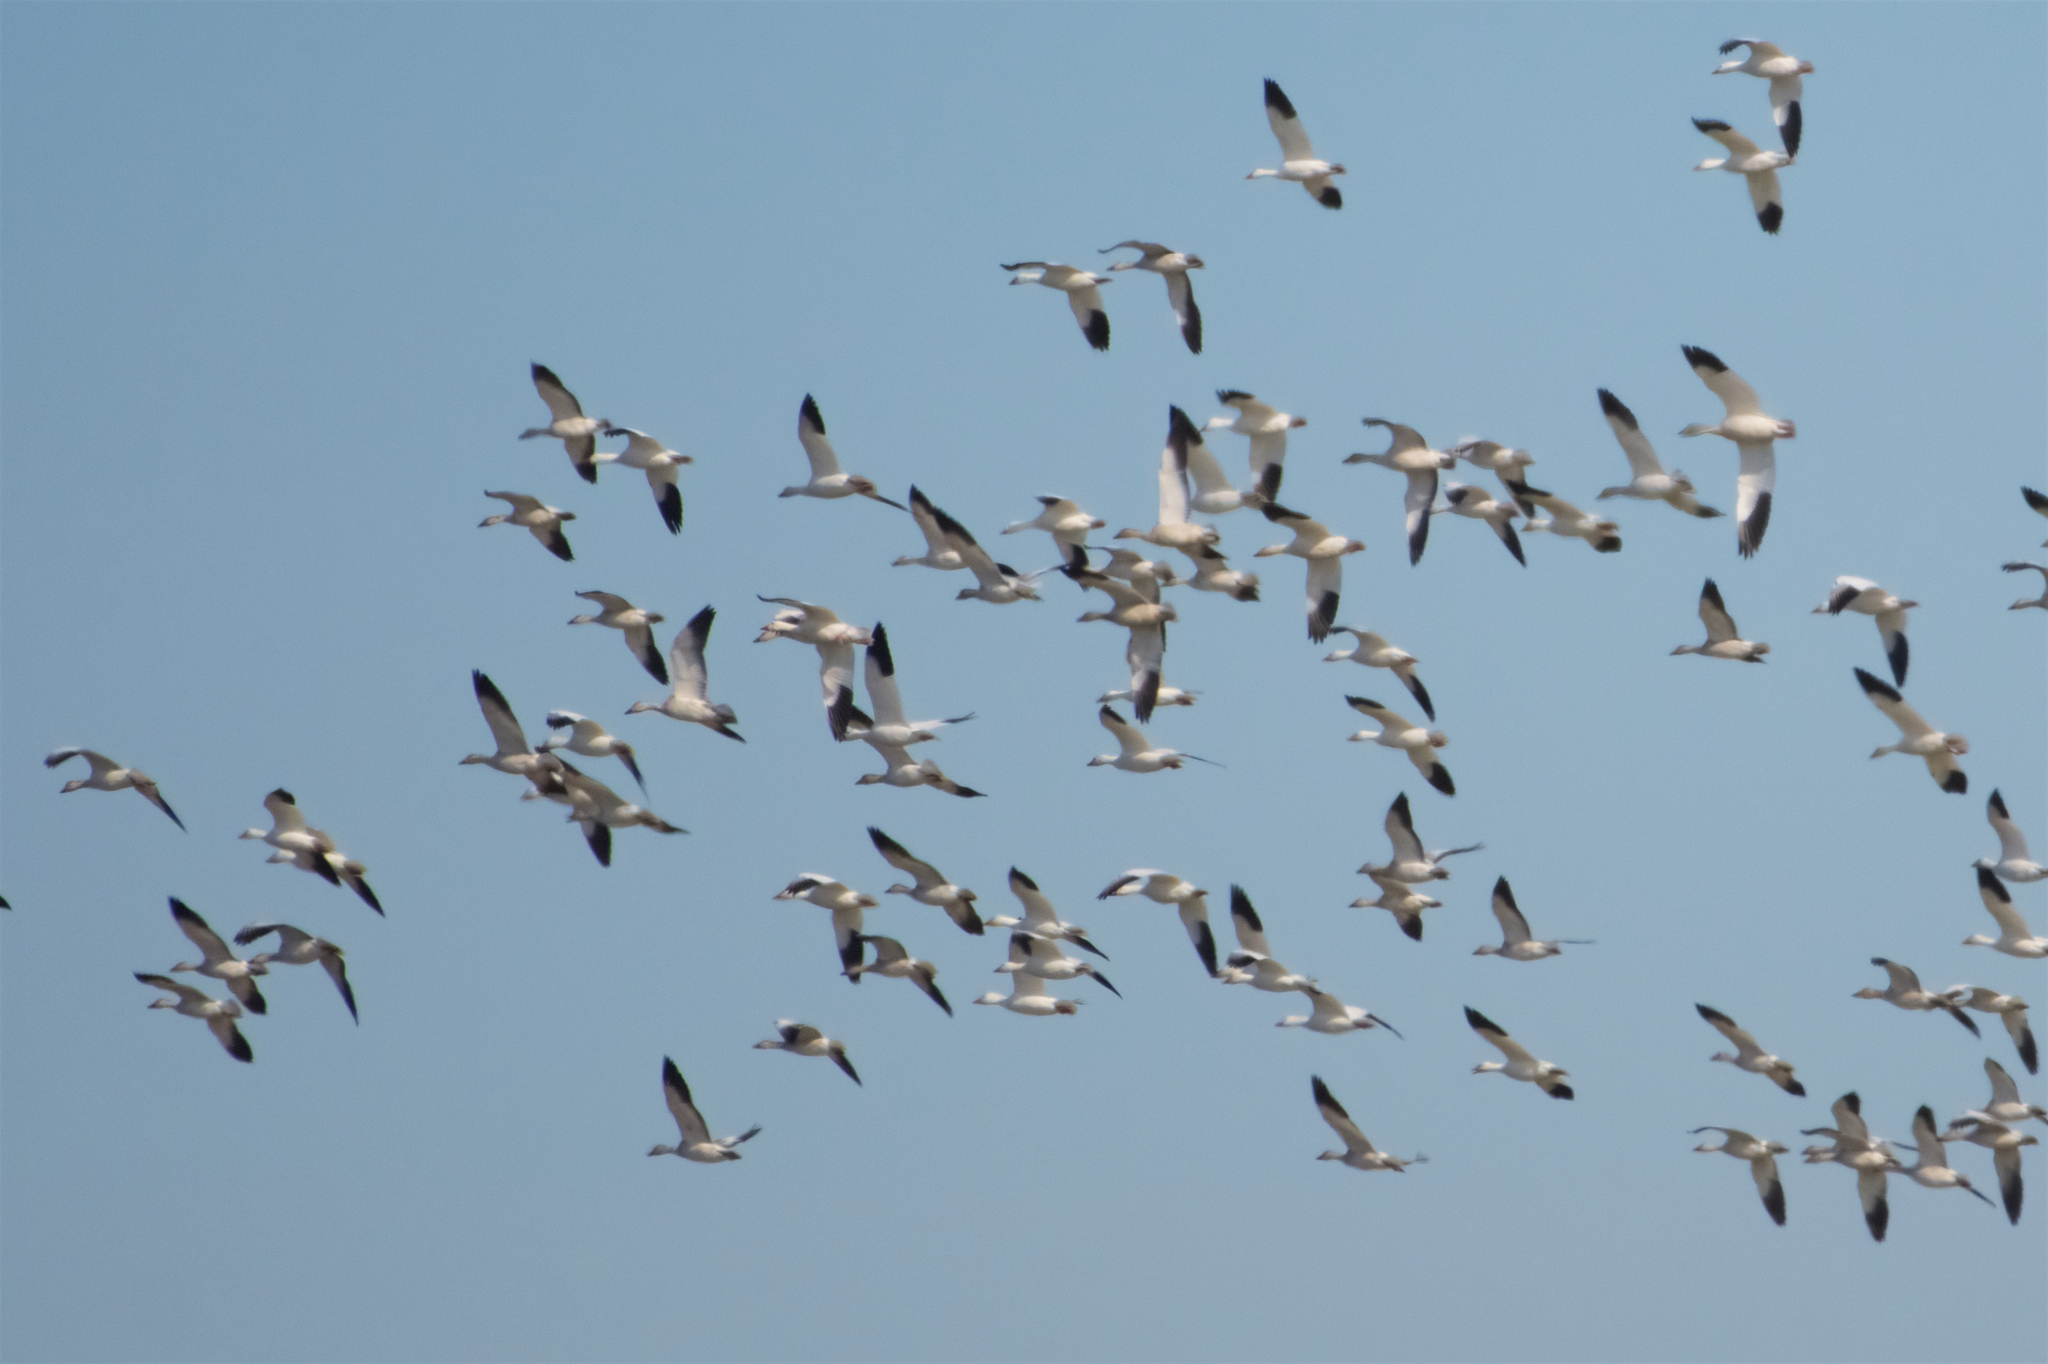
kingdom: Animalia
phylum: Chordata
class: Aves
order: Anseriformes
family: Anatidae
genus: Anser
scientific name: Anser caerulescens
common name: Snow goose
